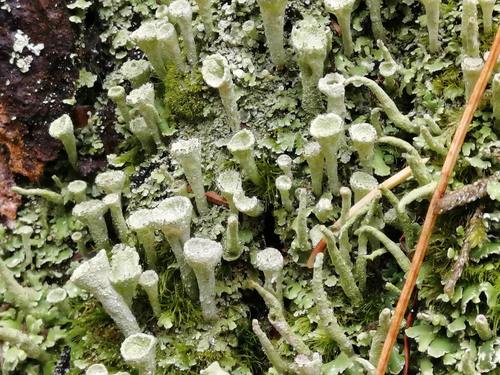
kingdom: Fungi
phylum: Ascomycota
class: Lecanoromycetes
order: Lecanorales
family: Cladoniaceae
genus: Cladonia
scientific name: Cladonia fimbriata
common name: Powdered trumpet lichen
